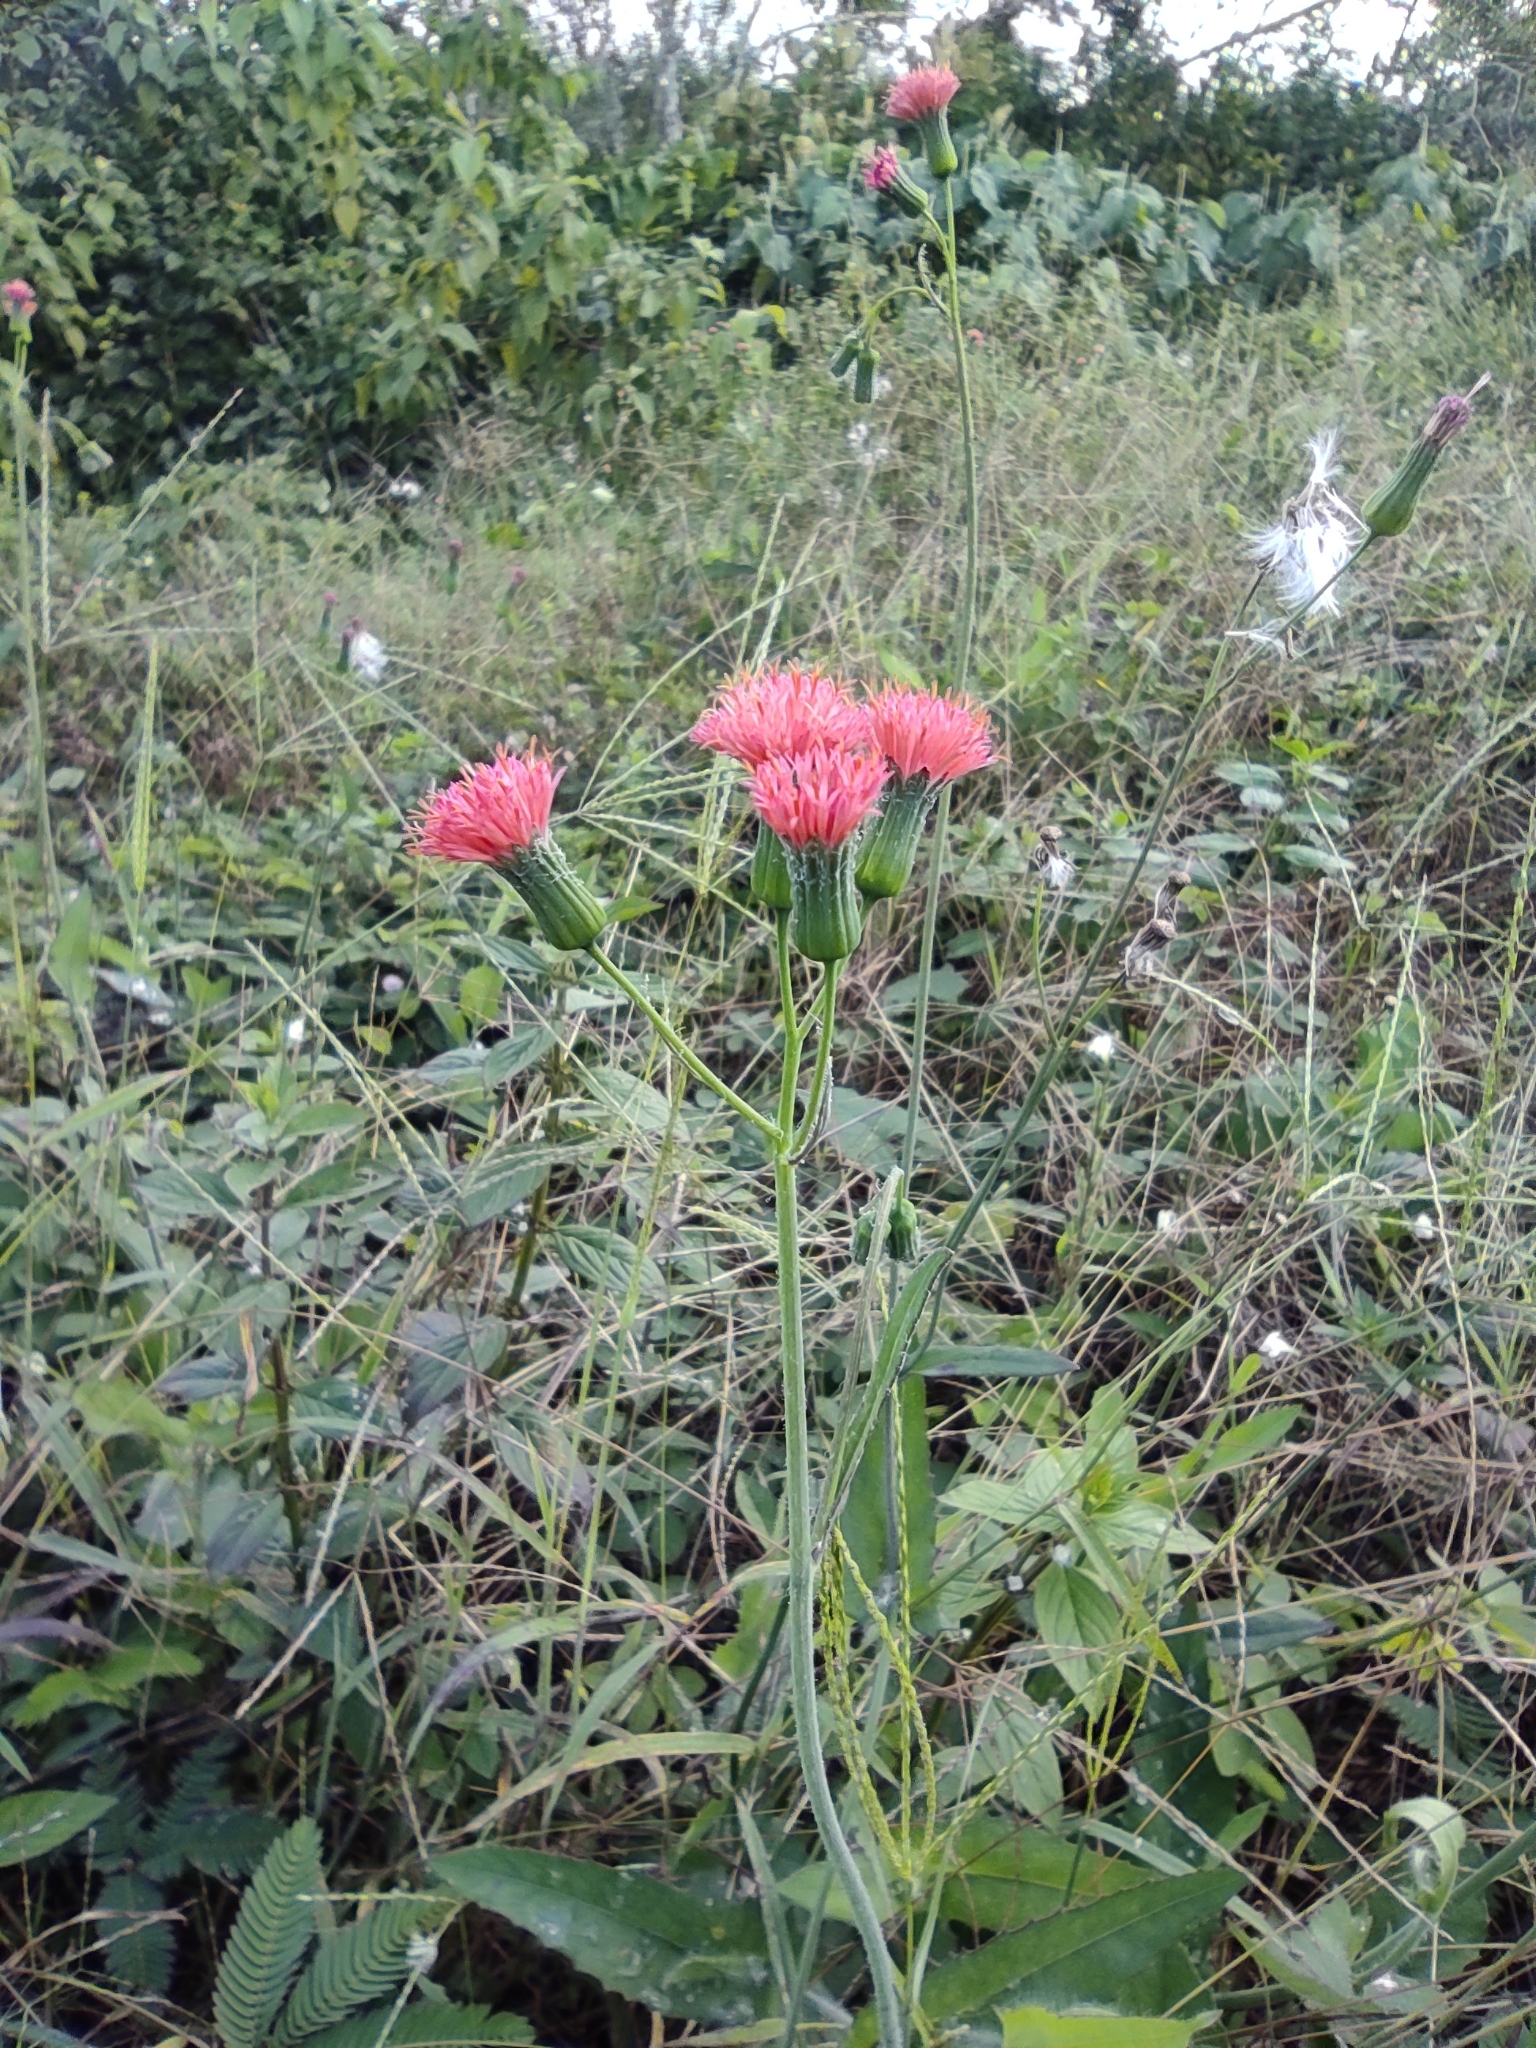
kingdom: Plantae
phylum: Tracheophyta
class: Magnoliopsida
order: Asterales
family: Asteraceae
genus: Emilia
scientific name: Emilia fosbergii
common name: Florida tasselflower
